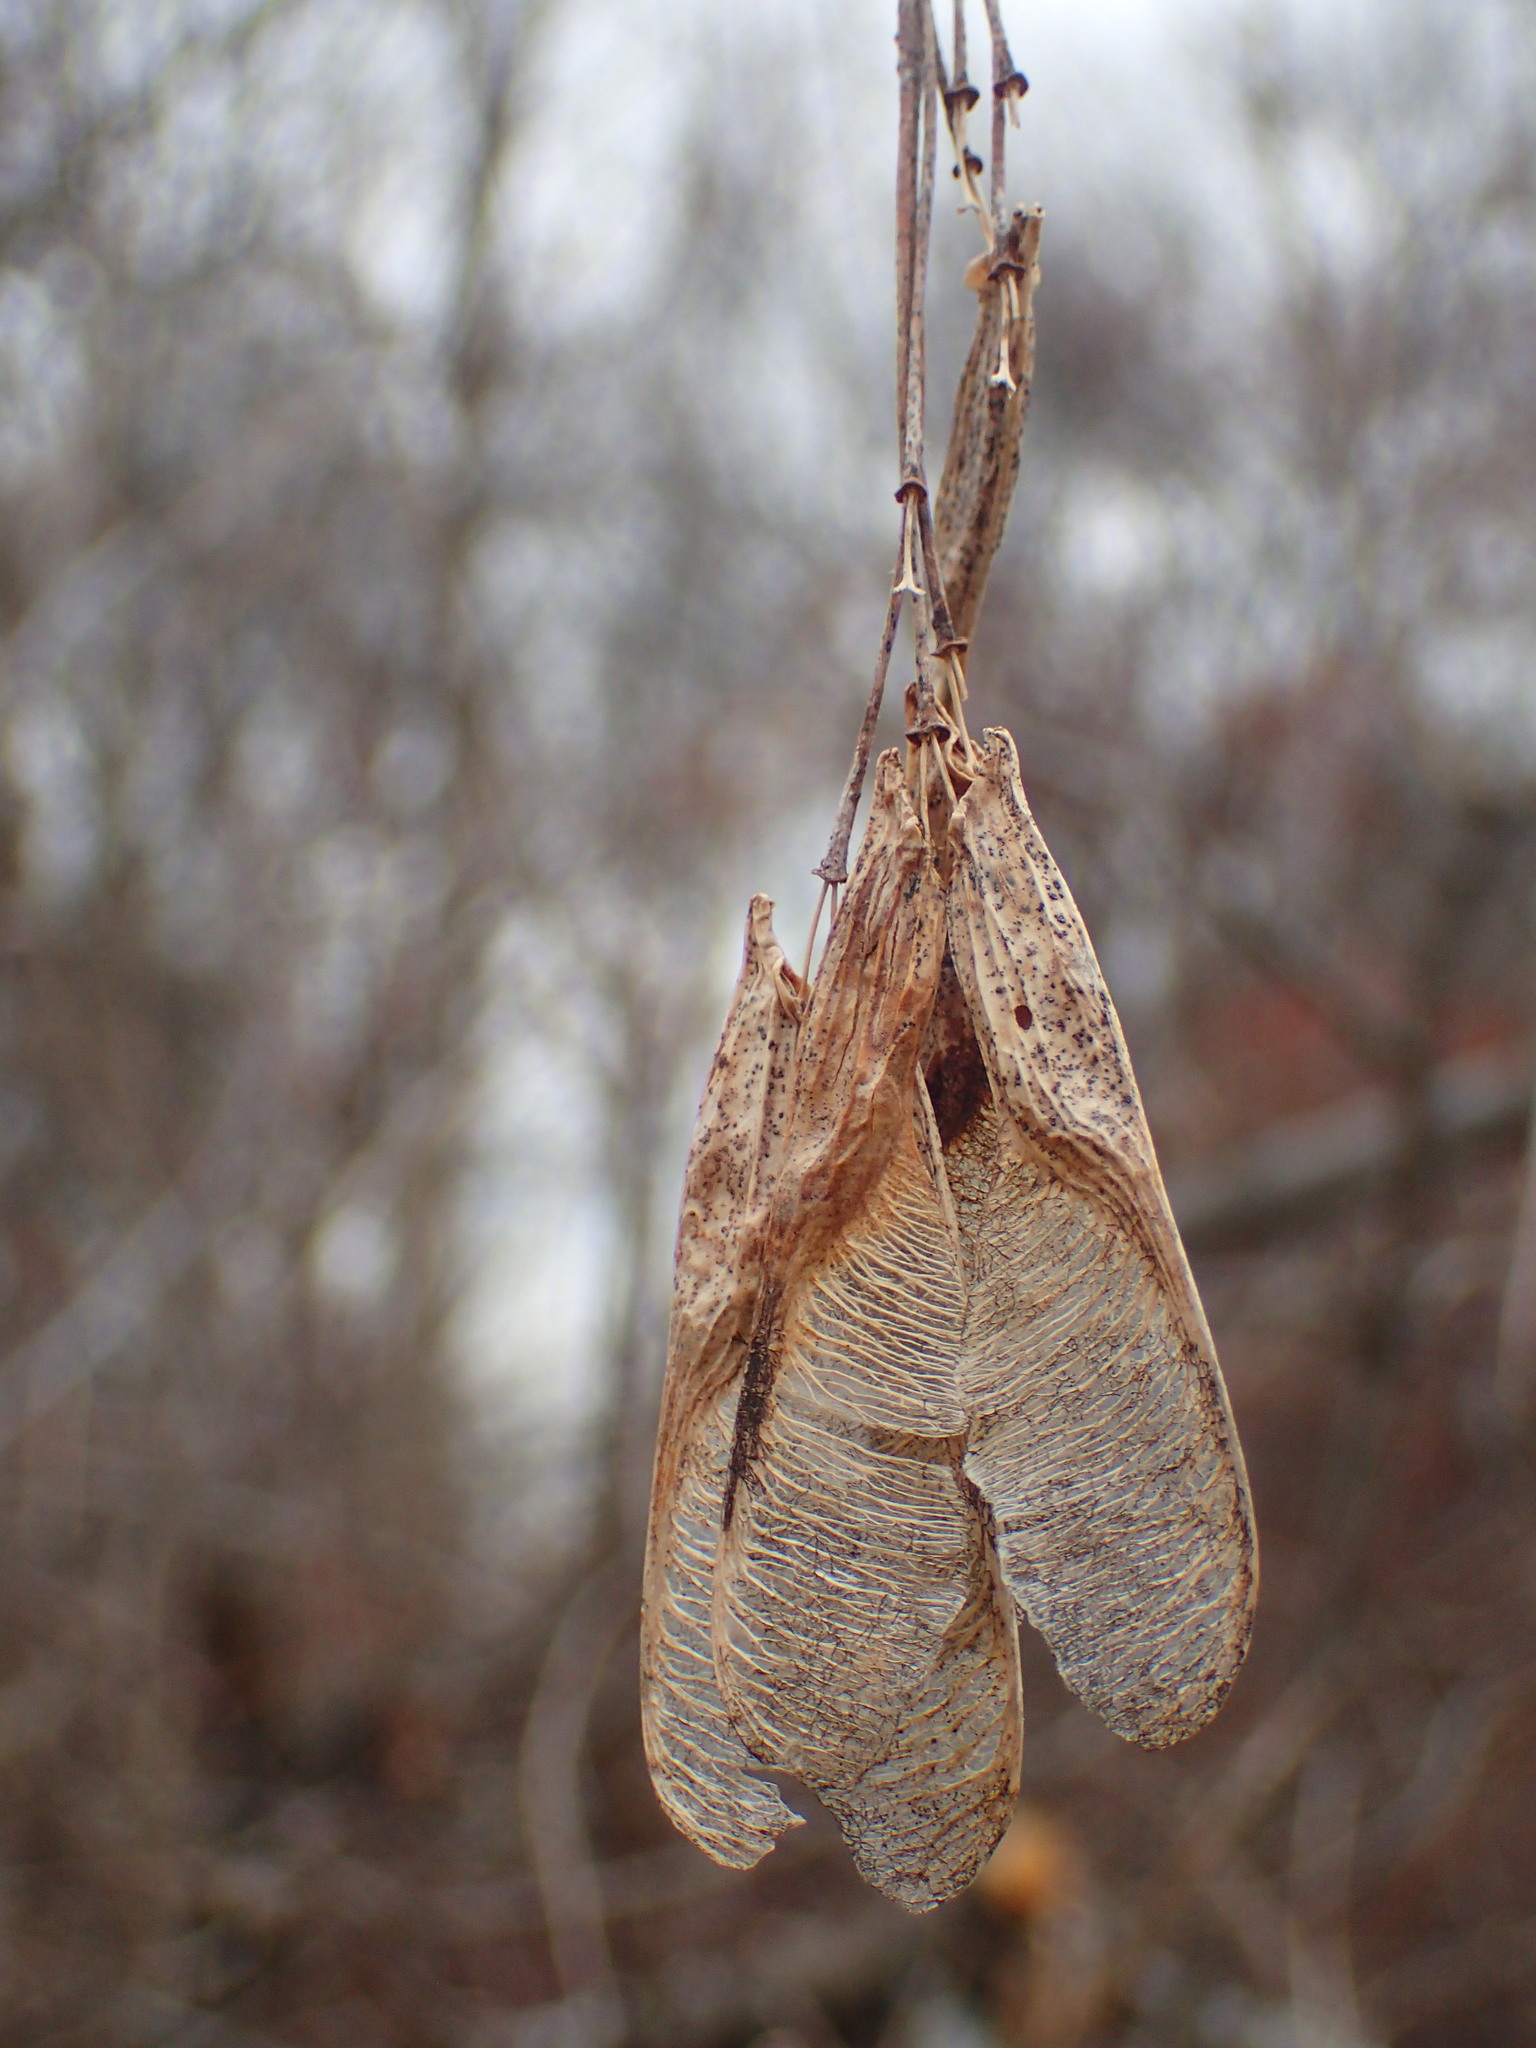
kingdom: Plantae
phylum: Tracheophyta
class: Magnoliopsida
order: Sapindales
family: Sapindaceae
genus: Acer
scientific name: Acer negundo
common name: Ashleaf maple
